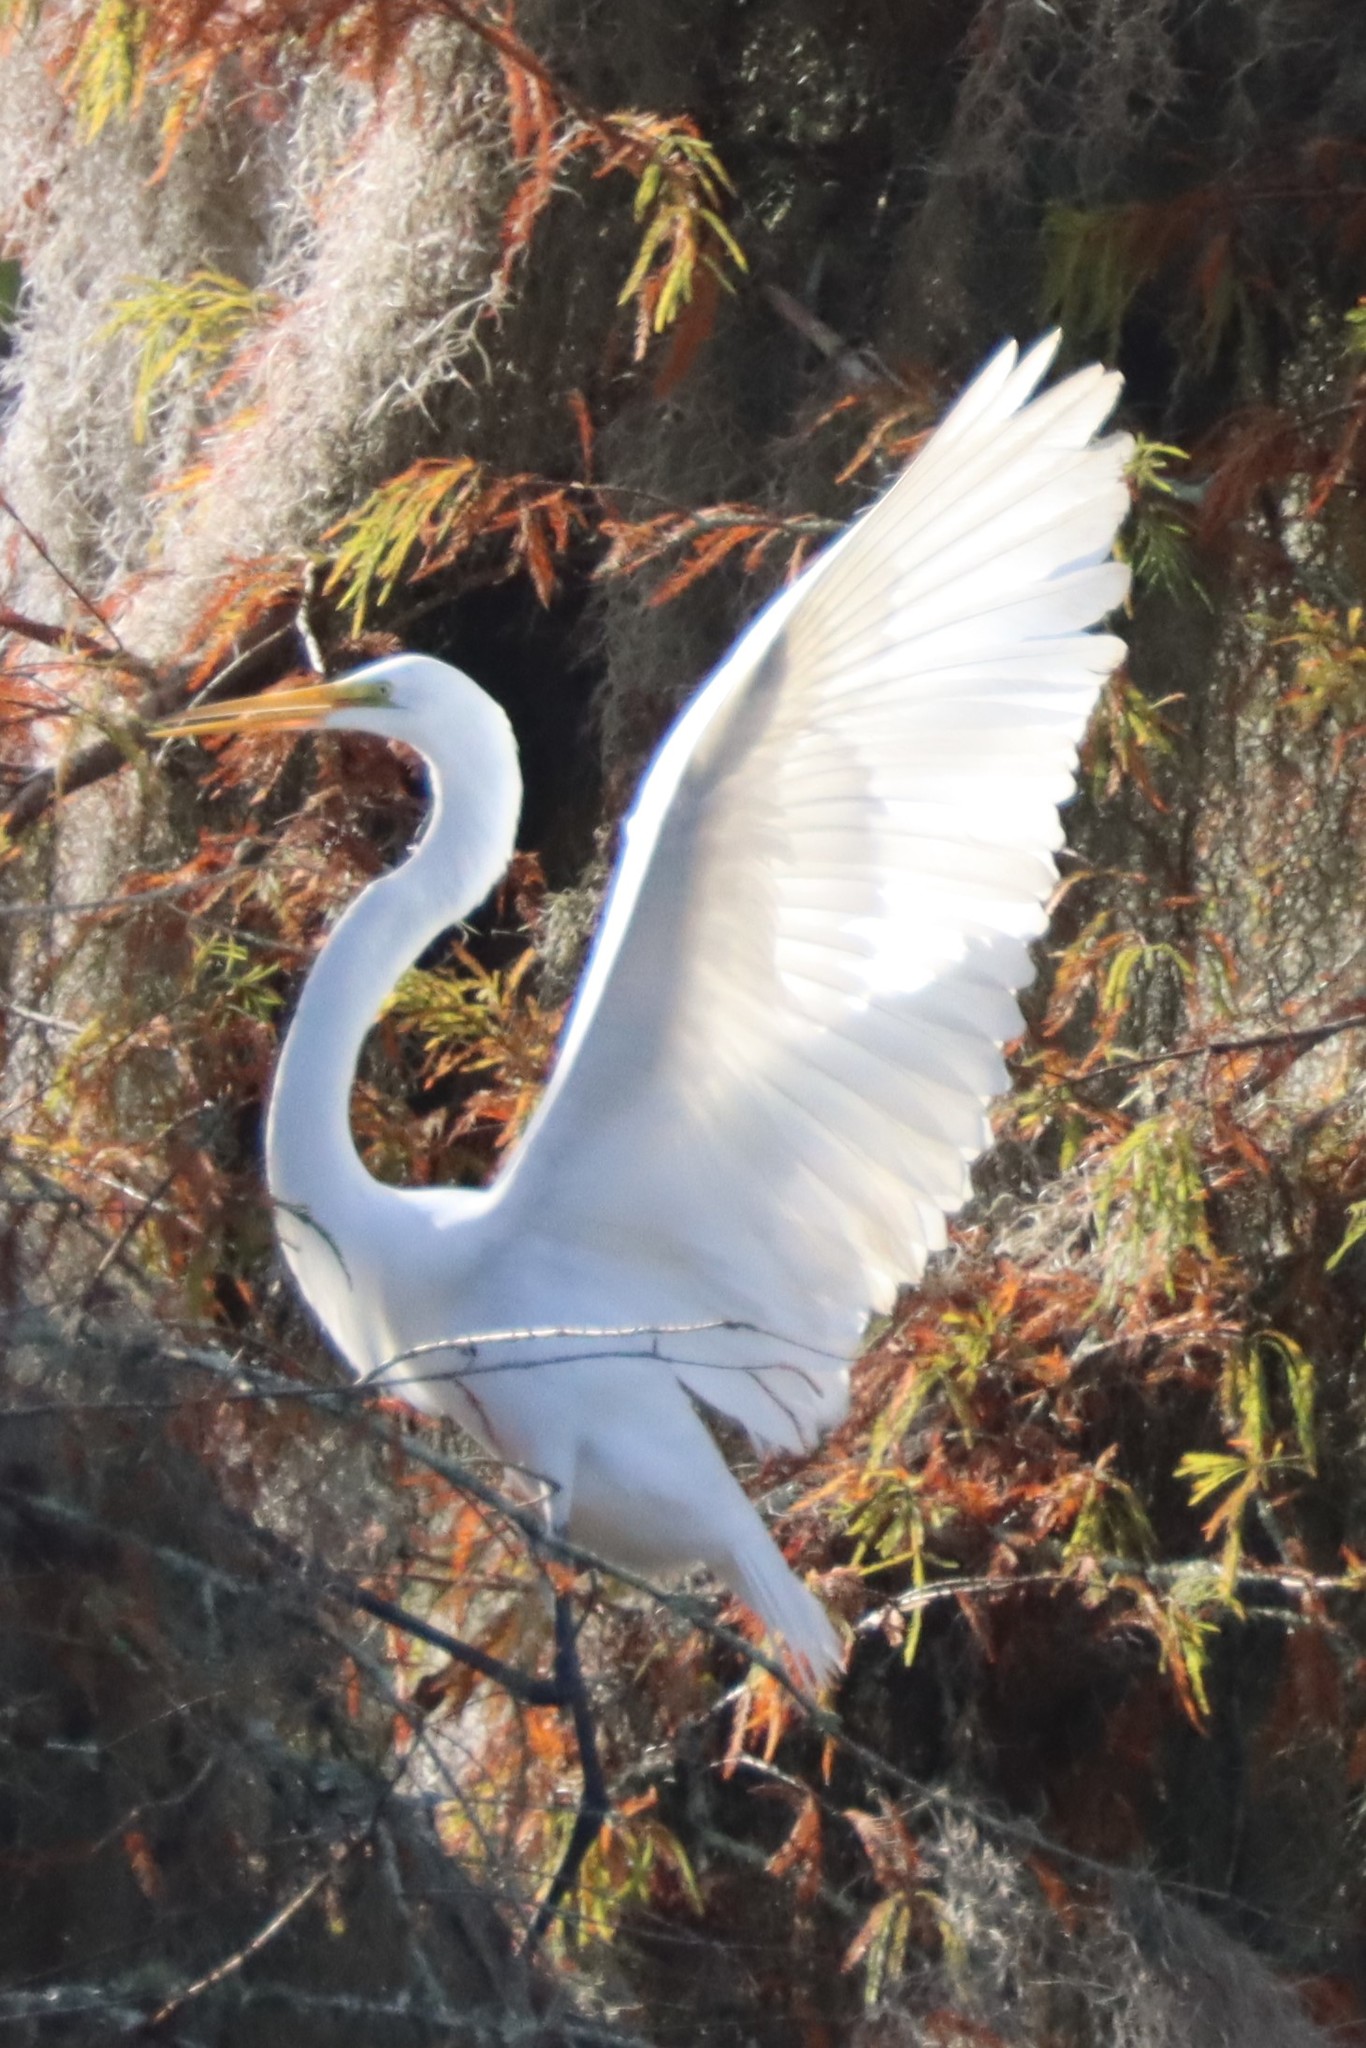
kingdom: Animalia
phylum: Chordata
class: Aves
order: Pelecaniformes
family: Ardeidae
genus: Ardea
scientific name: Ardea alba
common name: Great egret
